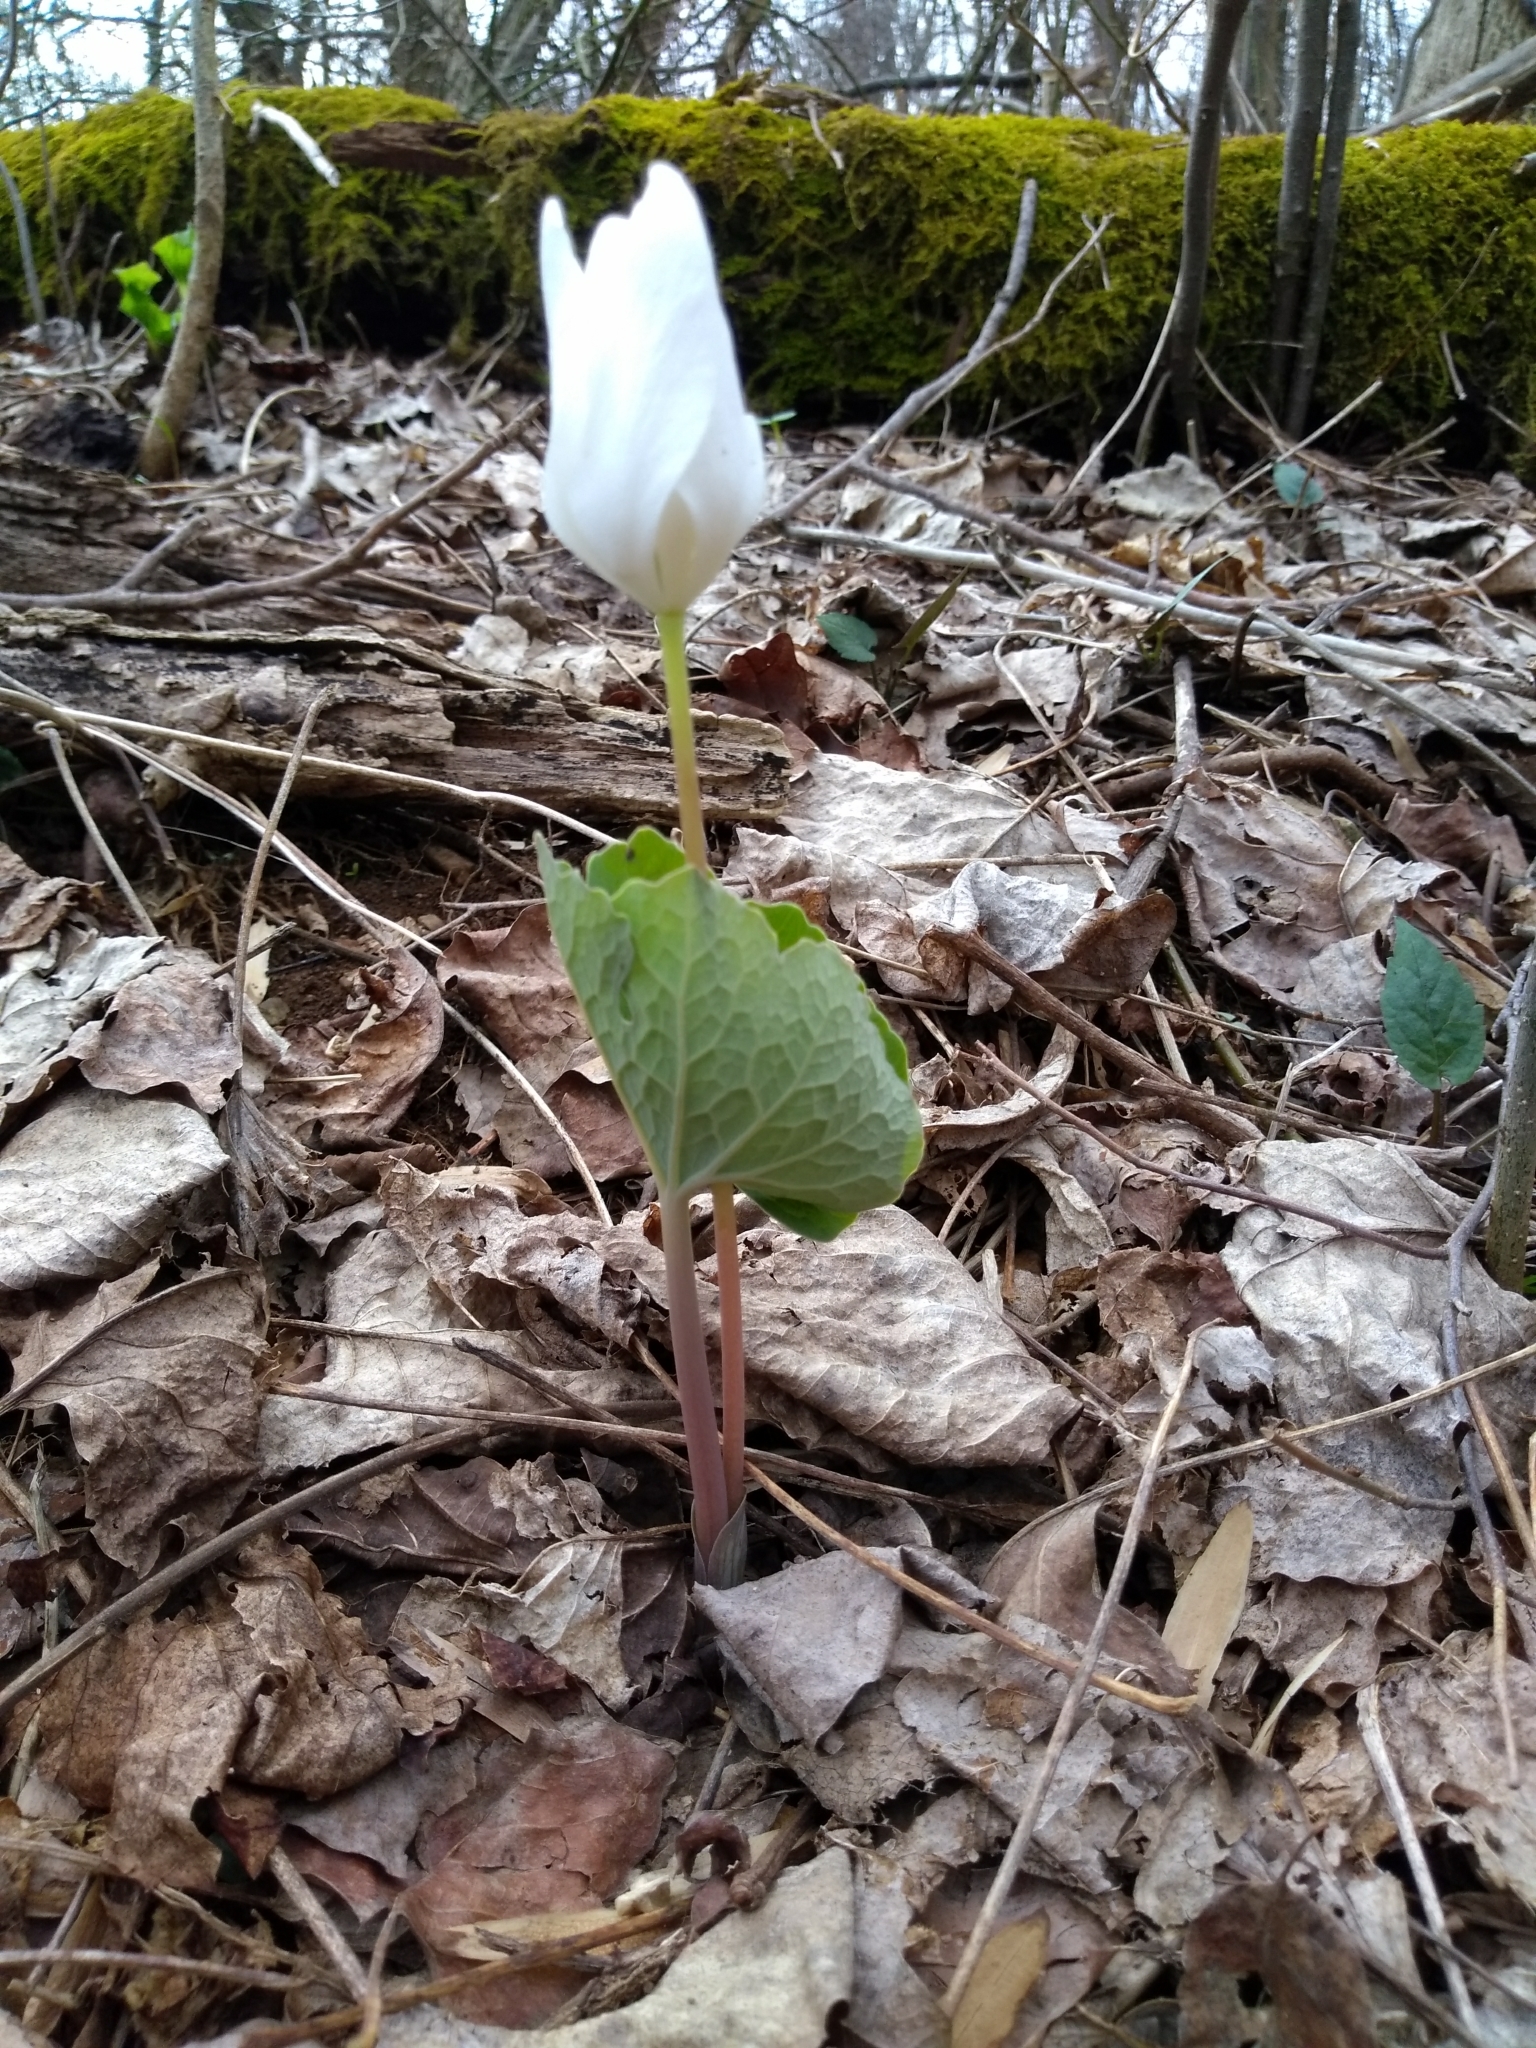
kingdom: Plantae
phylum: Tracheophyta
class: Magnoliopsida
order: Ranunculales
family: Papaveraceae
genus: Sanguinaria
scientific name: Sanguinaria canadensis
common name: Bloodroot
